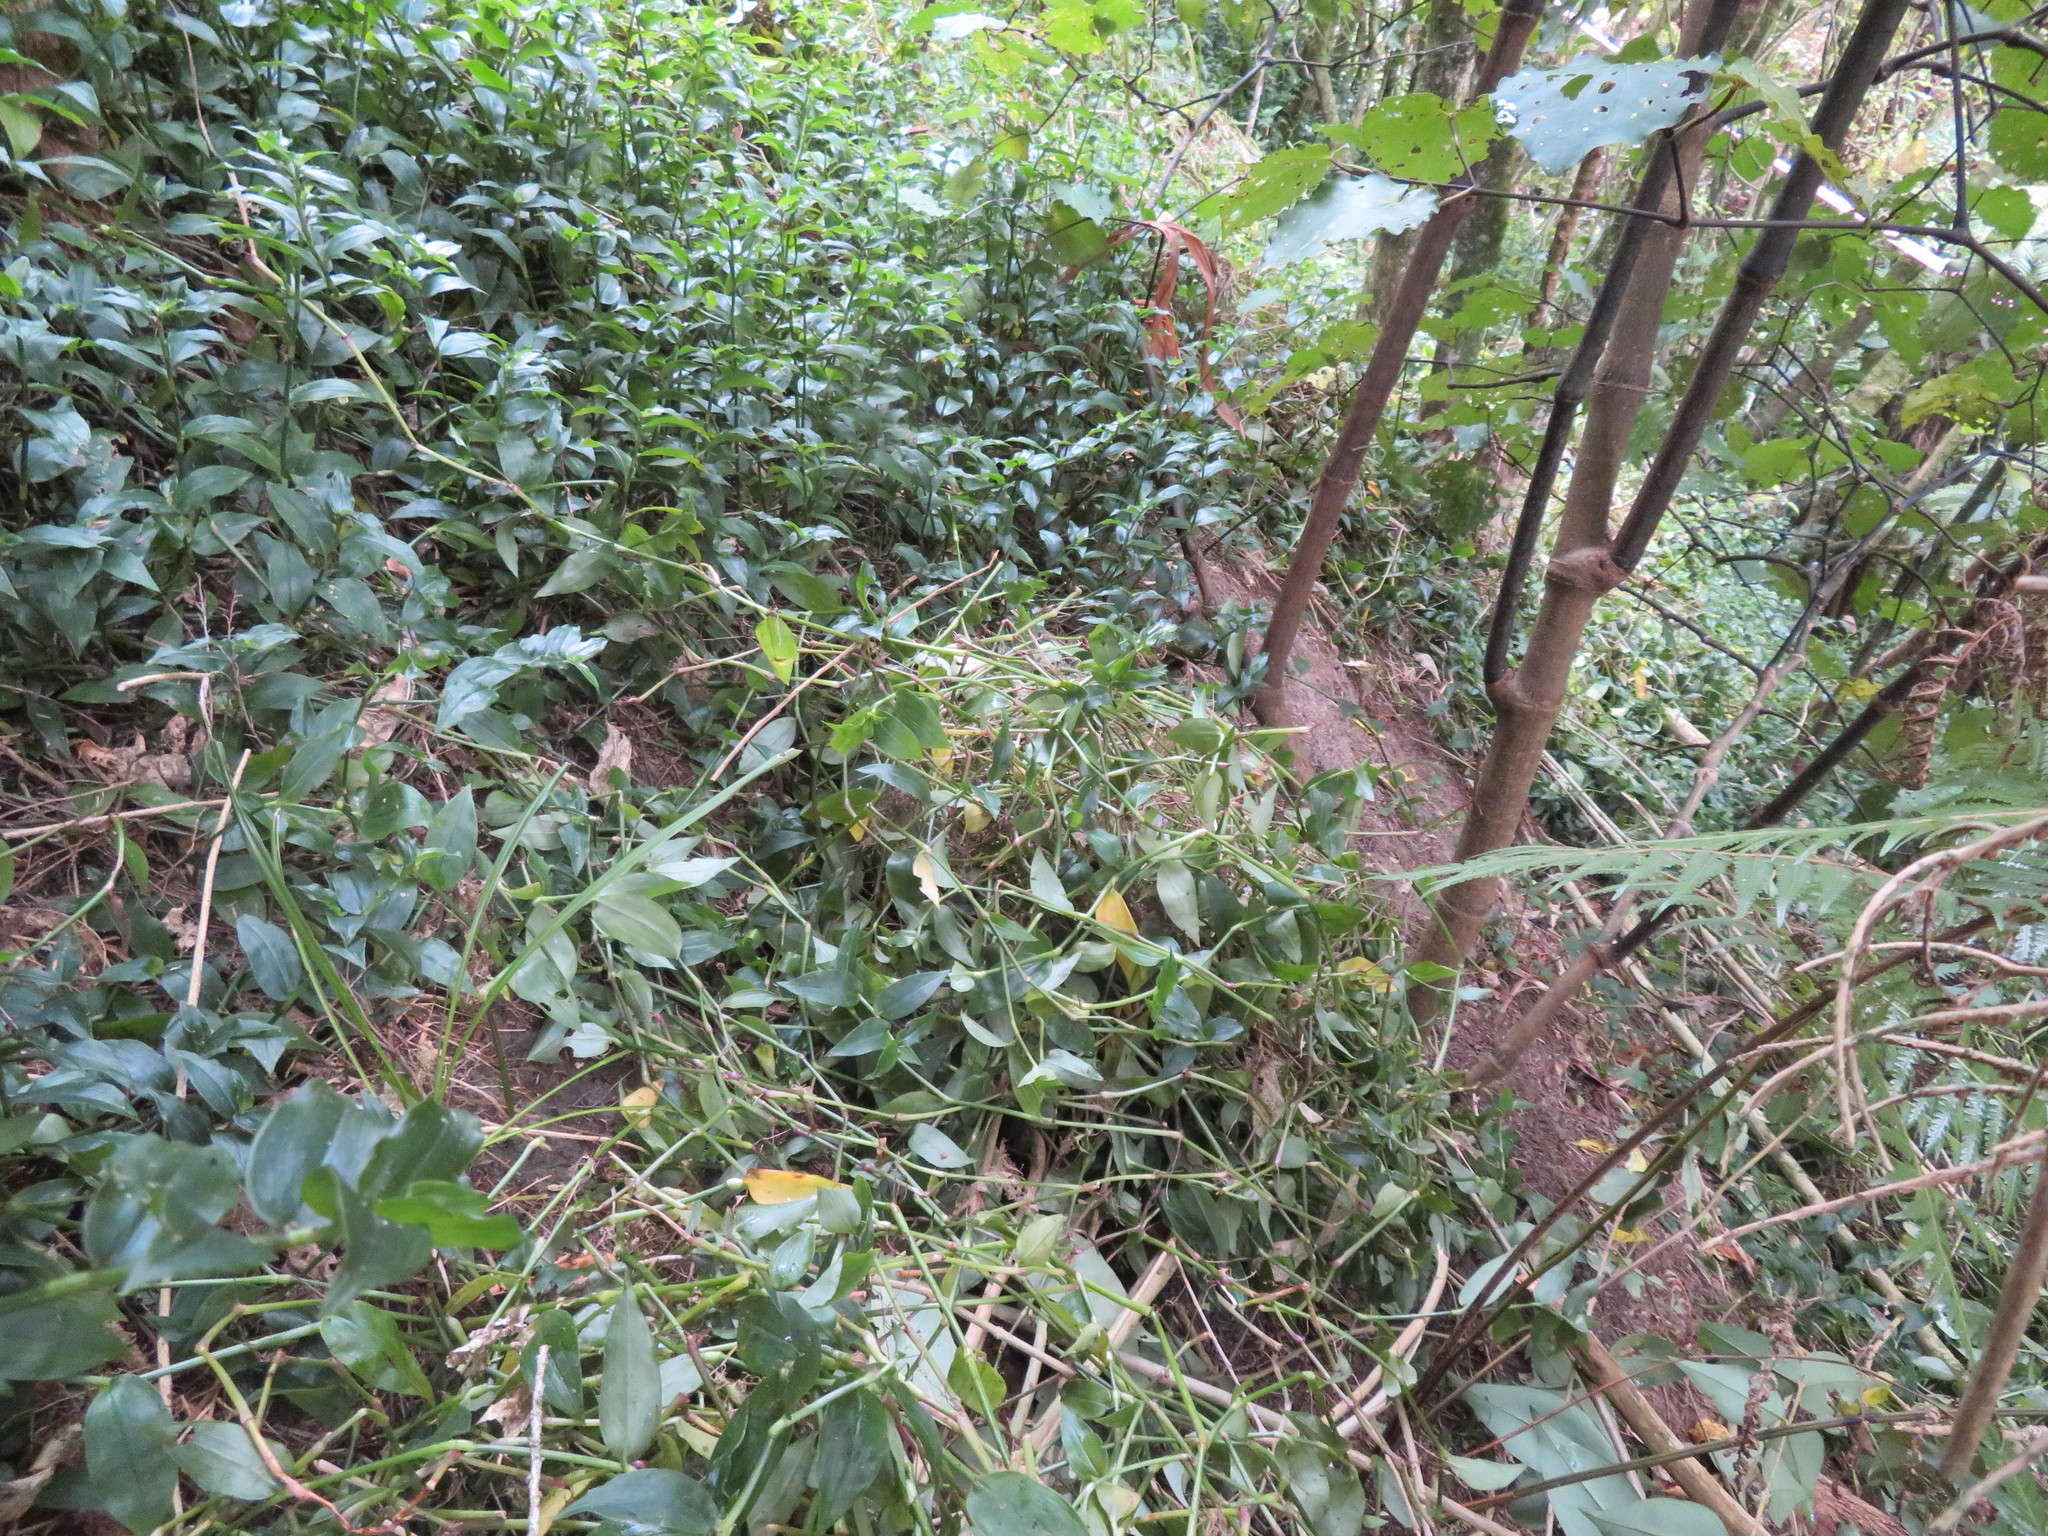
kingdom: Plantae
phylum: Tracheophyta
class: Liliopsida
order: Commelinales
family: Commelinaceae
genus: Tradescantia
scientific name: Tradescantia fluminensis
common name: Wandering-jew
